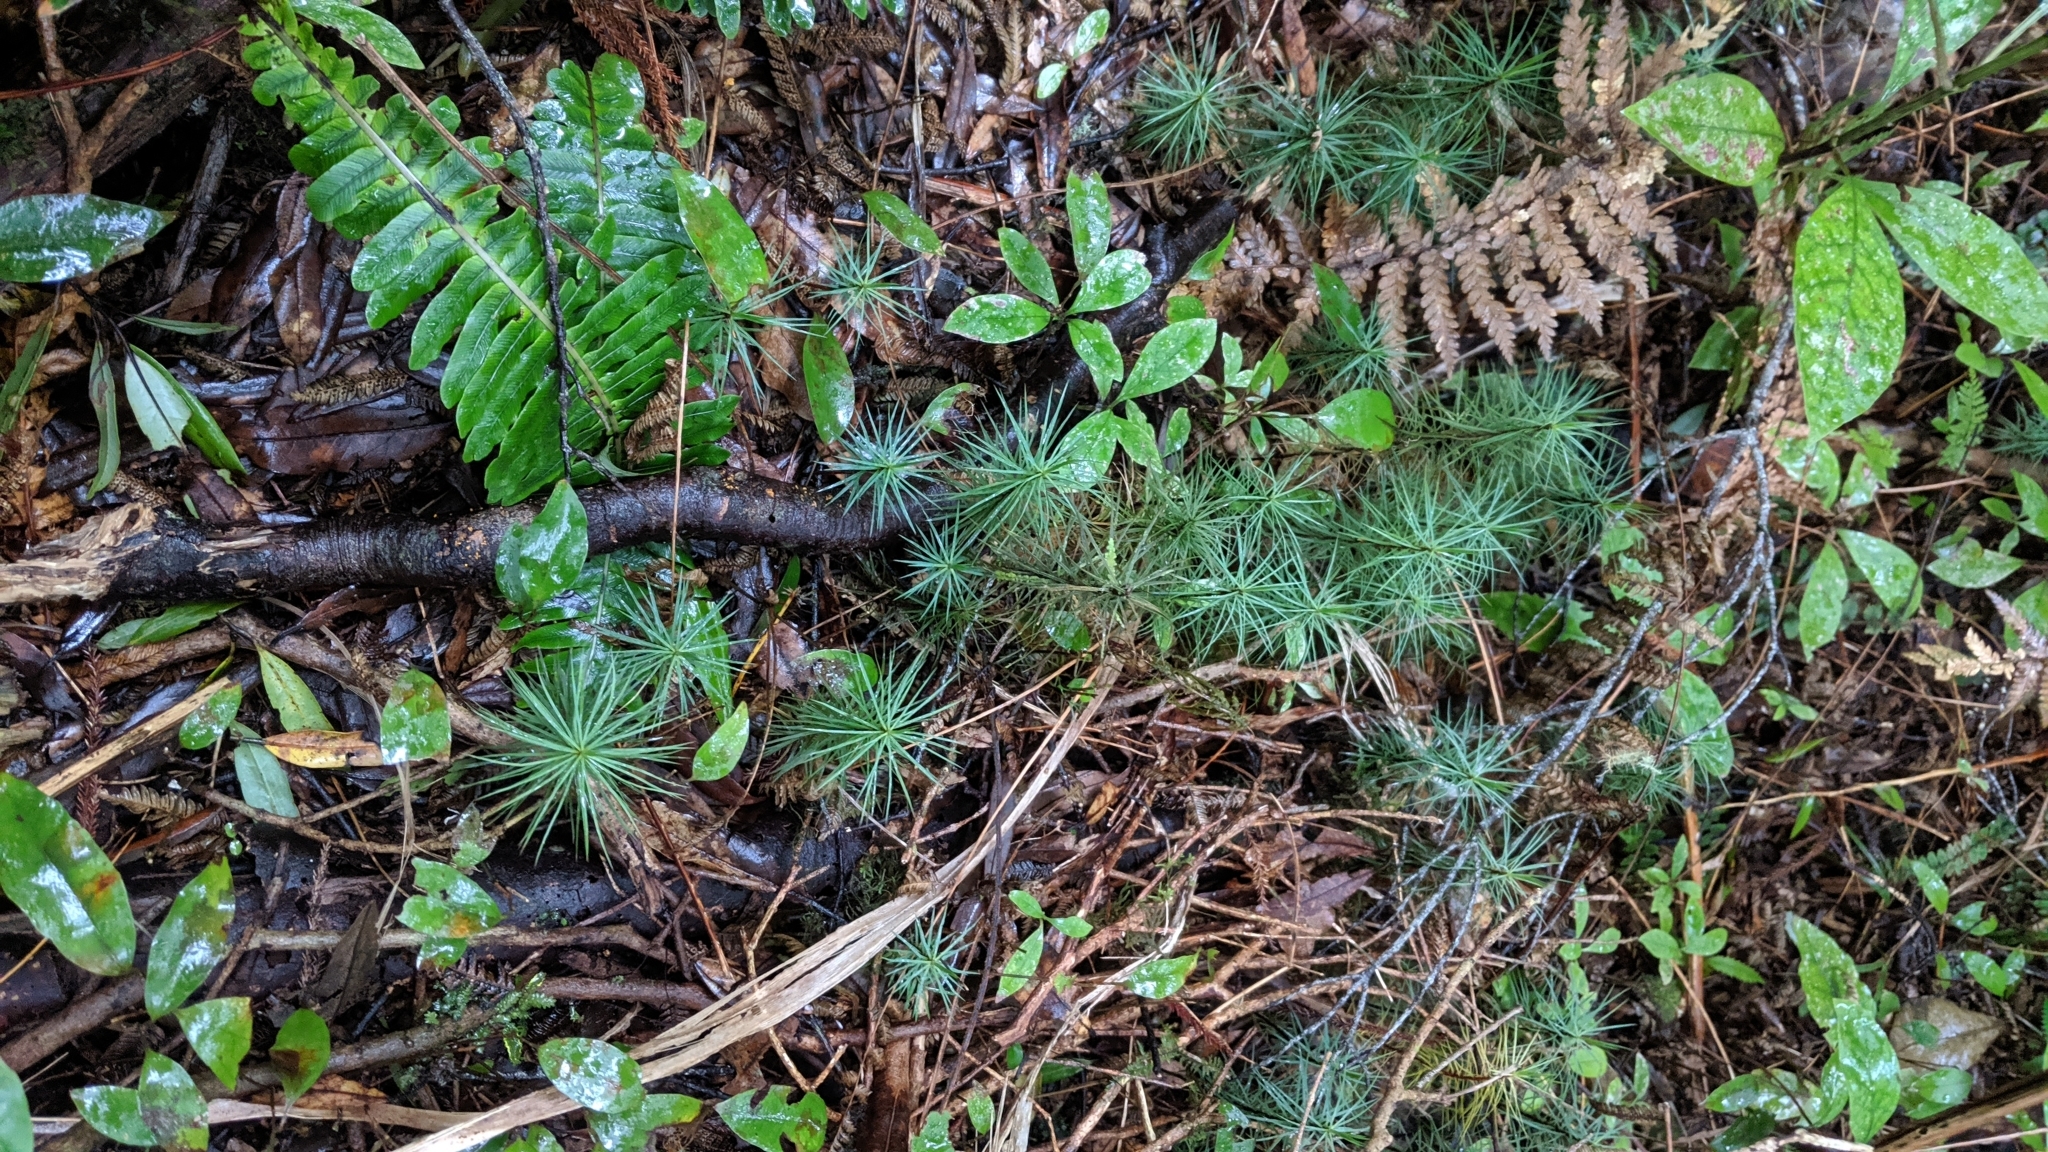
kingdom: Plantae
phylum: Bryophyta
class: Polytrichopsida
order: Polytrichales
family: Polytrichaceae
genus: Dawsonia
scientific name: Dawsonia superba
